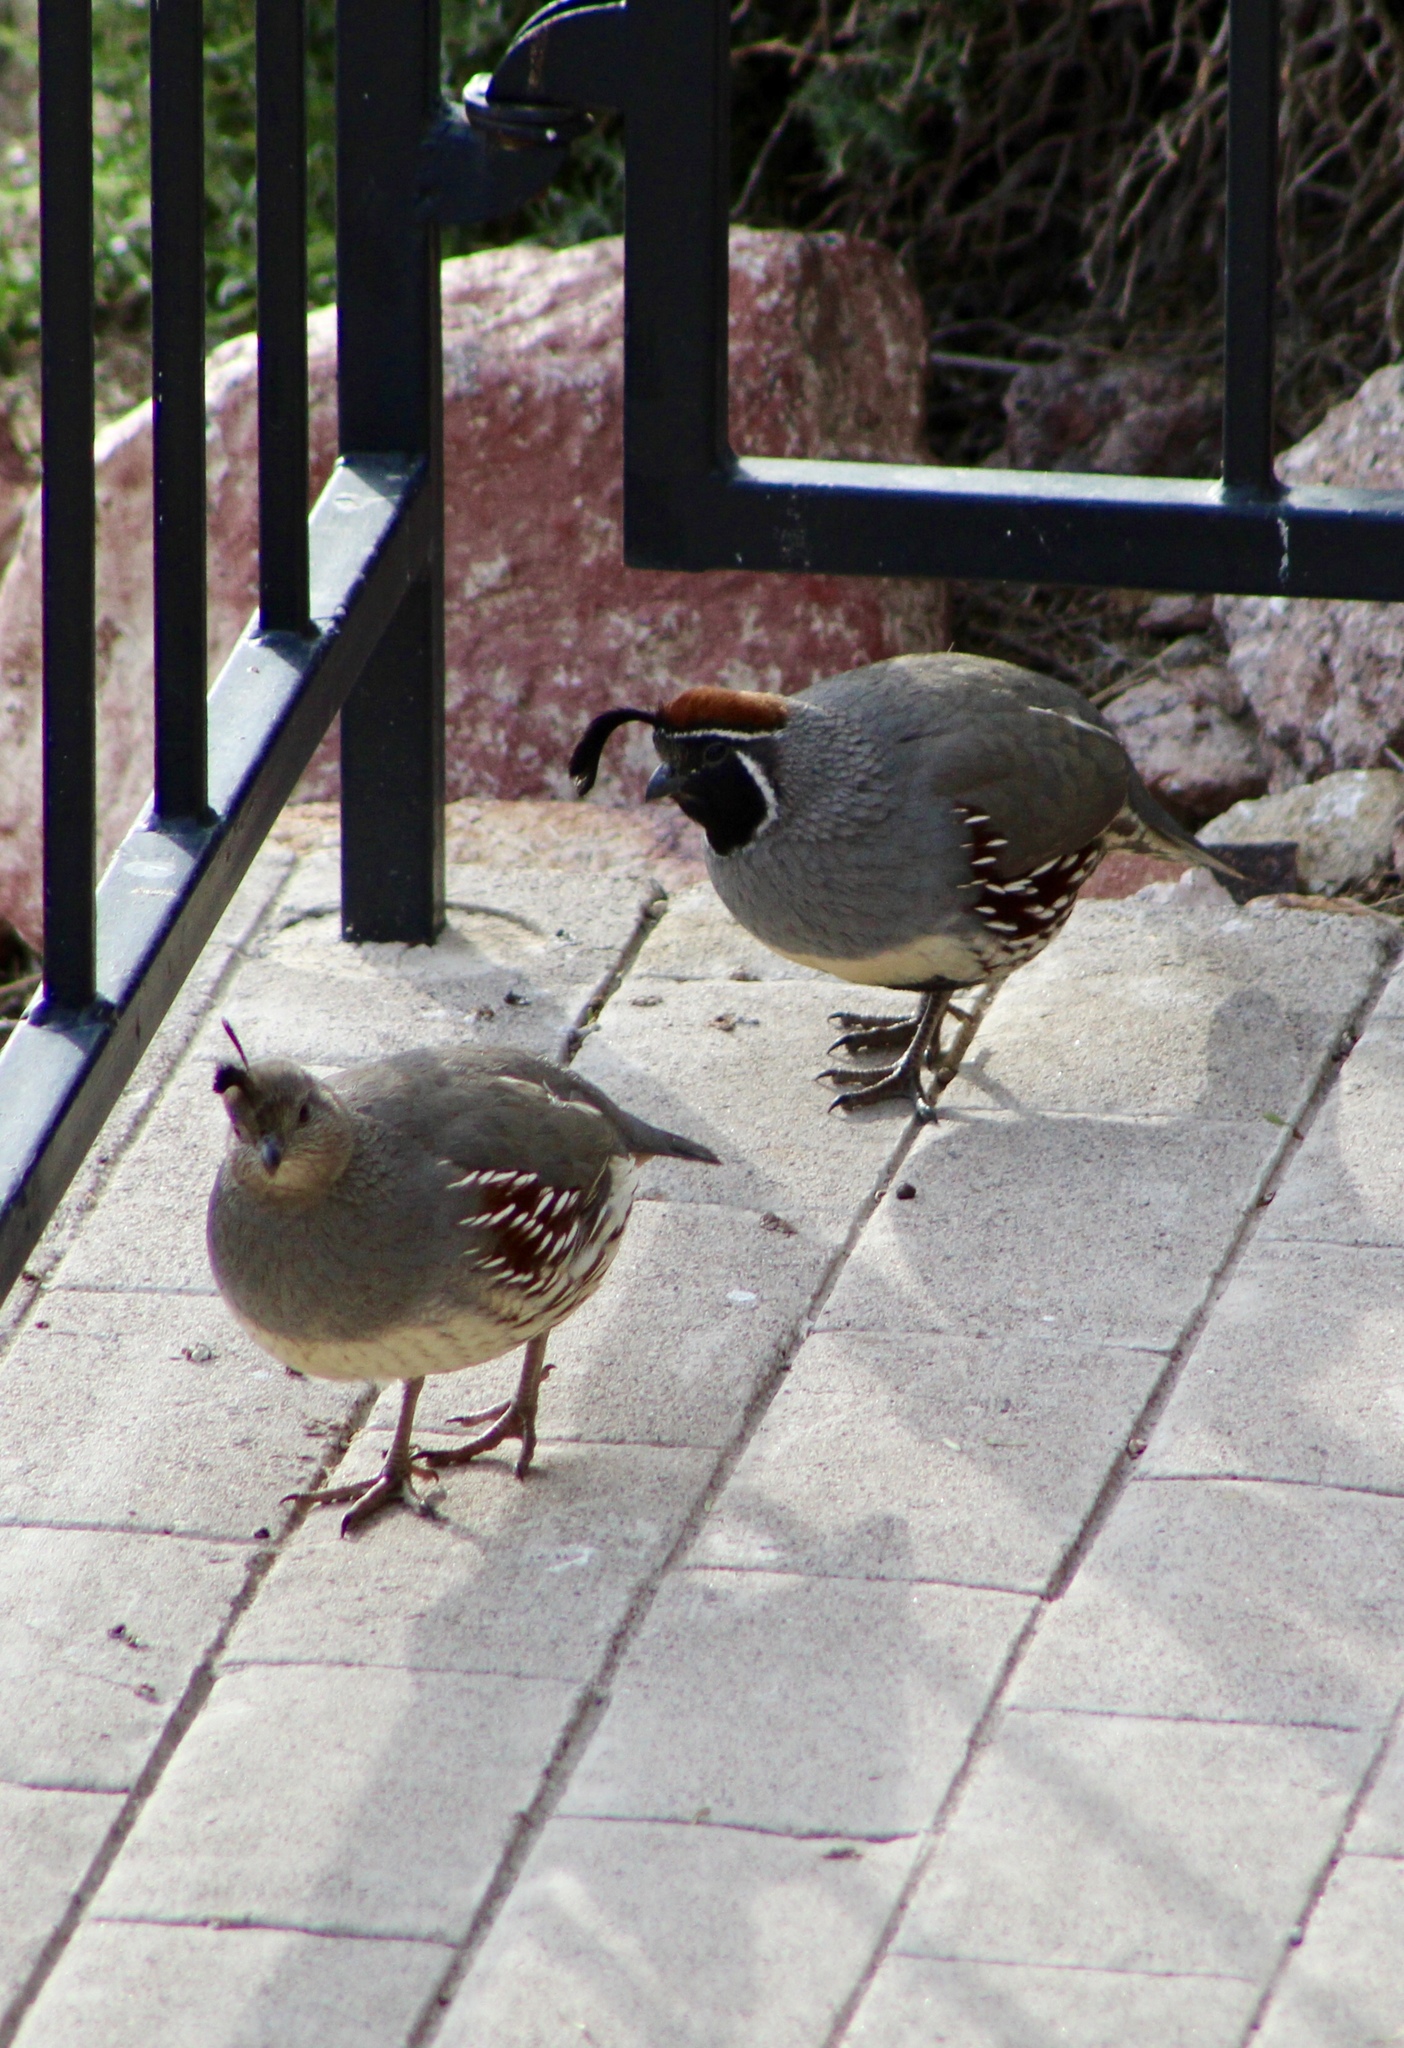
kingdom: Animalia
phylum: Chordata
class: Aves
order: Galliformes
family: Odontophoridae
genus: Callipepla
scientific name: Callipepla gambelii
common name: Gambel's quail
